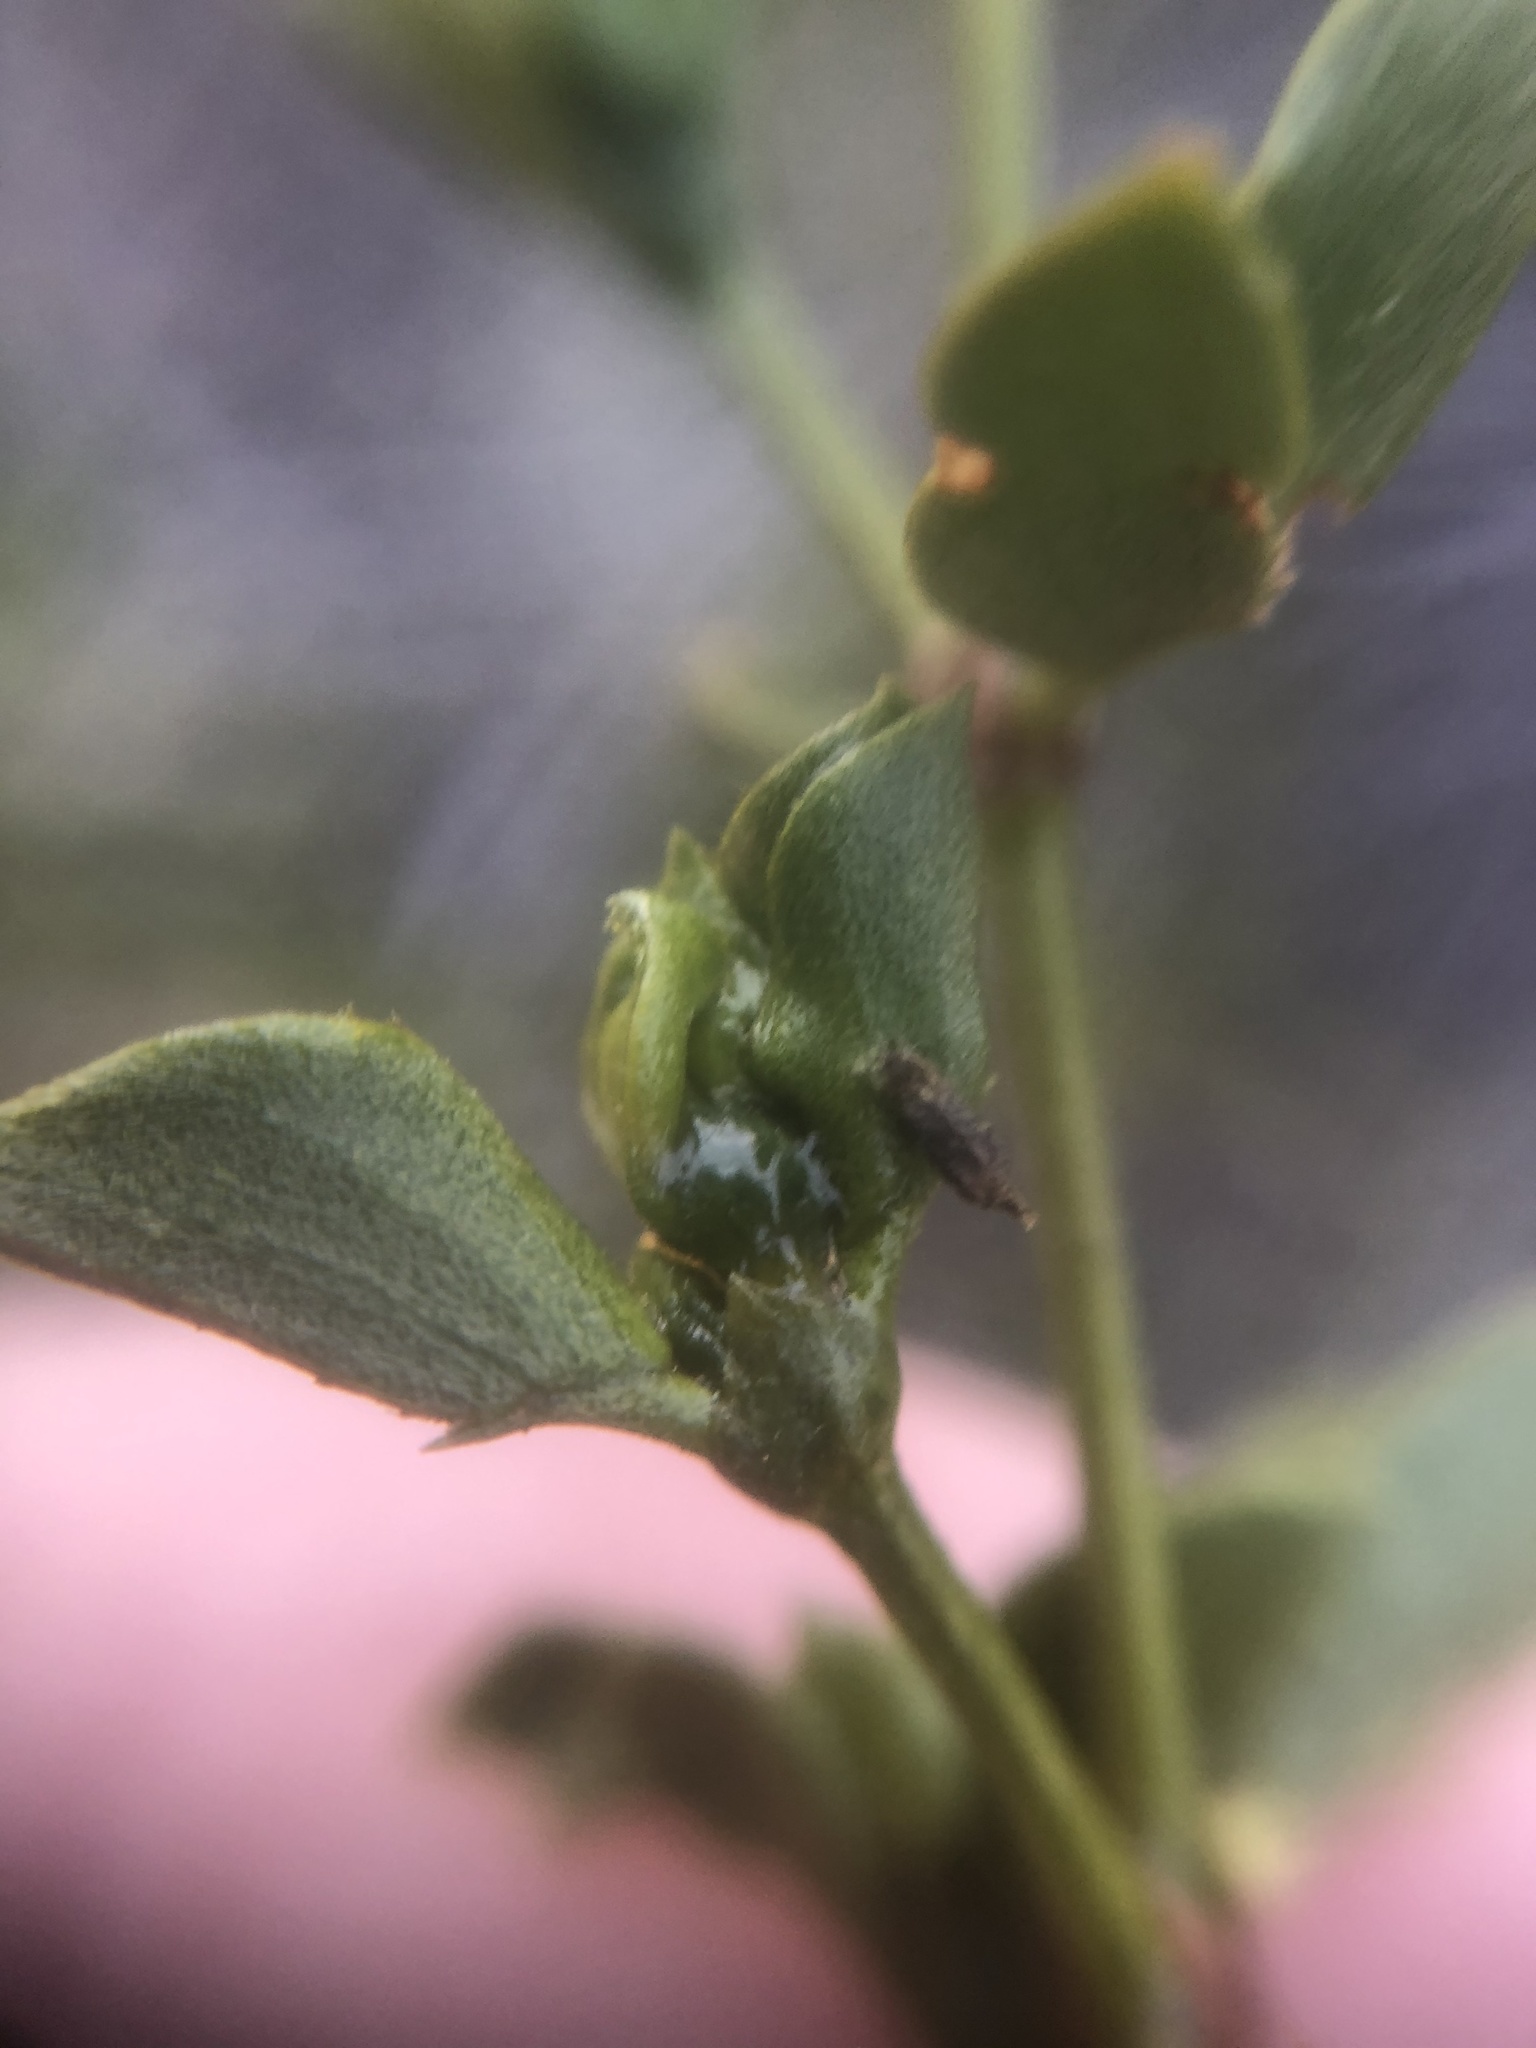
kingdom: Animalia
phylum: Arthropoda
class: Insecta
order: Diptera
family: Cecidomyiidae
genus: Asphondylia
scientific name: Asphondylia silicula
